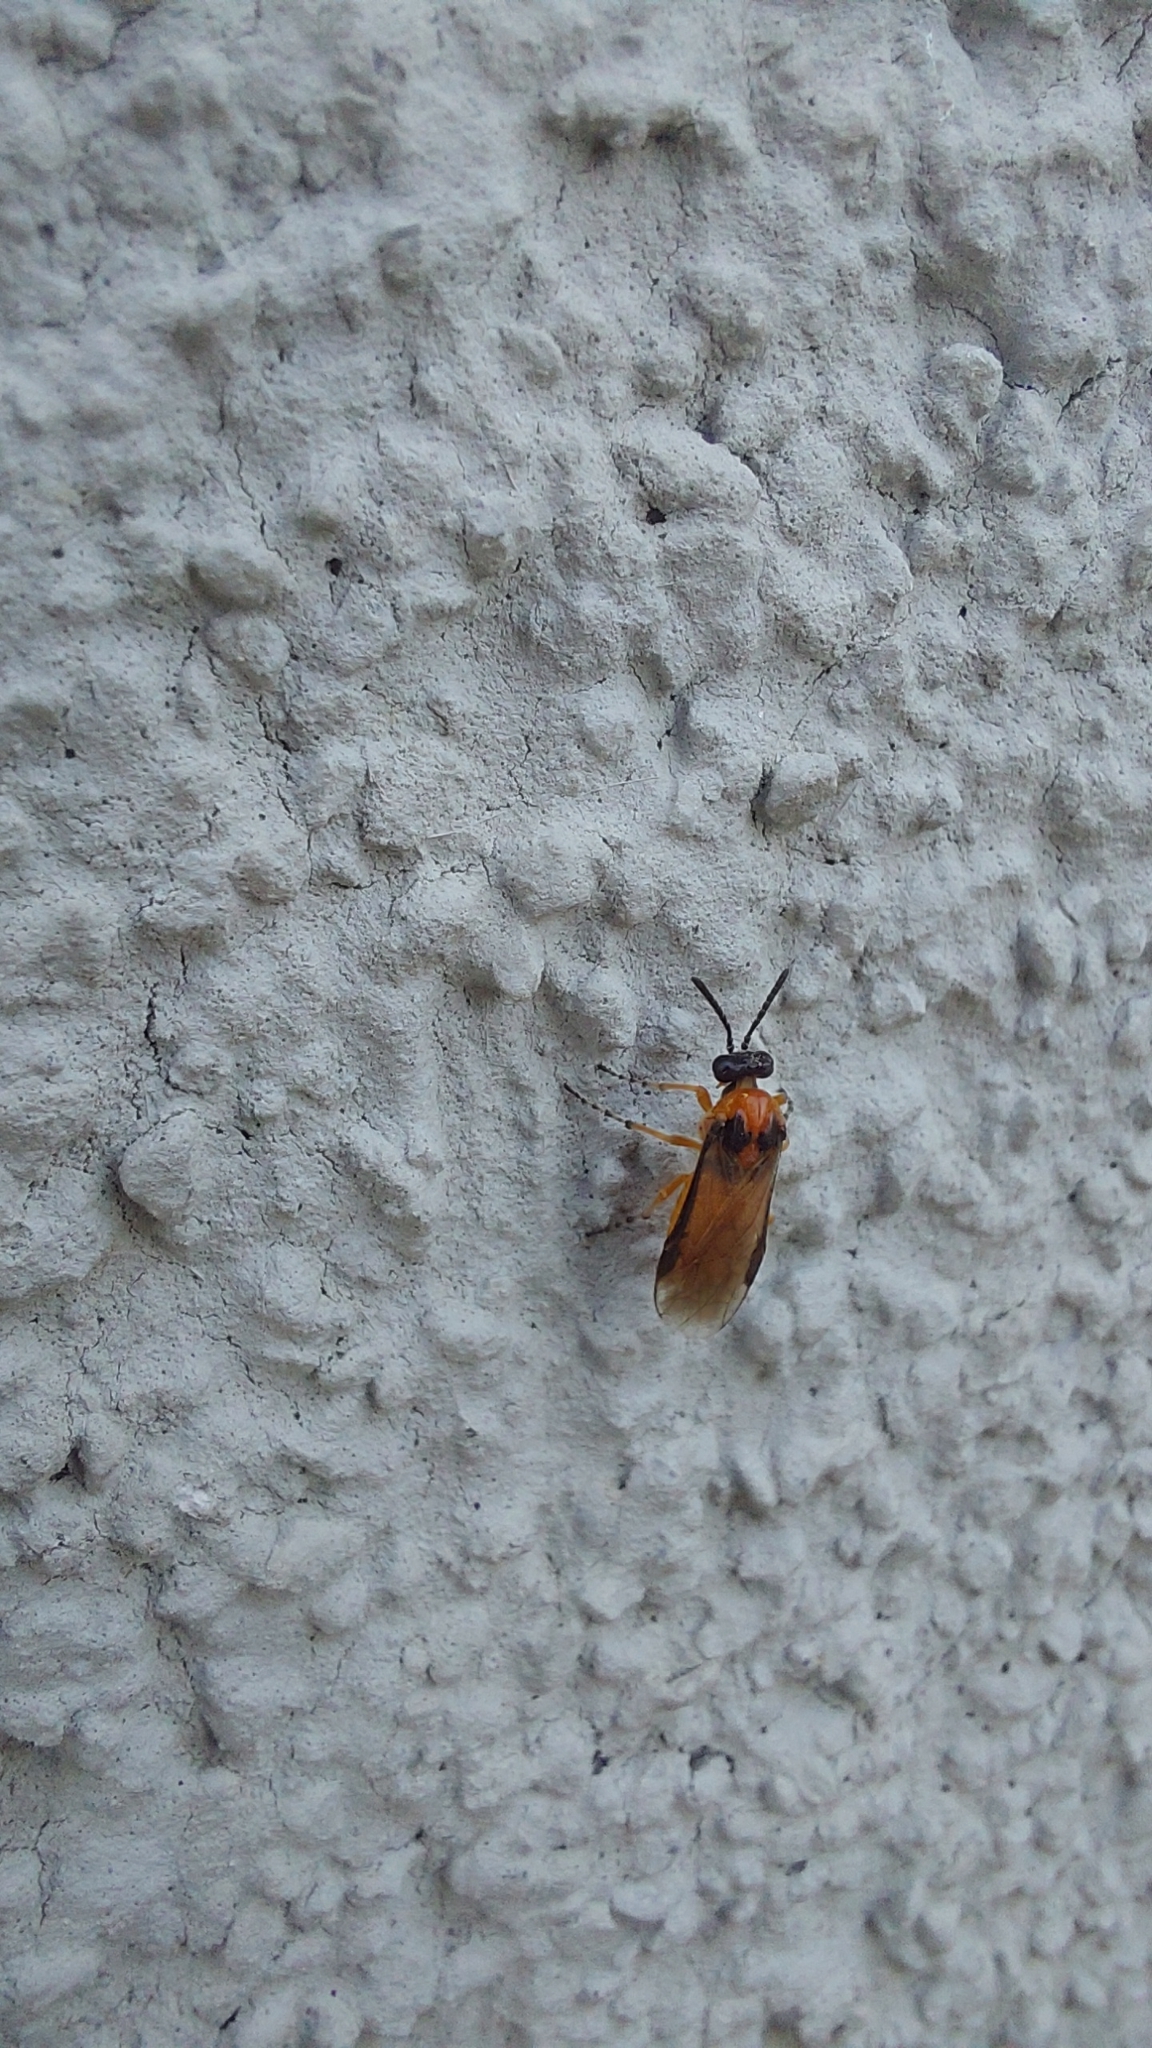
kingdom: Animalia
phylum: Arthropoda
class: Insecta
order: Hymenoptera
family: Tenthredinidae
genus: Athalia
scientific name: Athalia rosae
